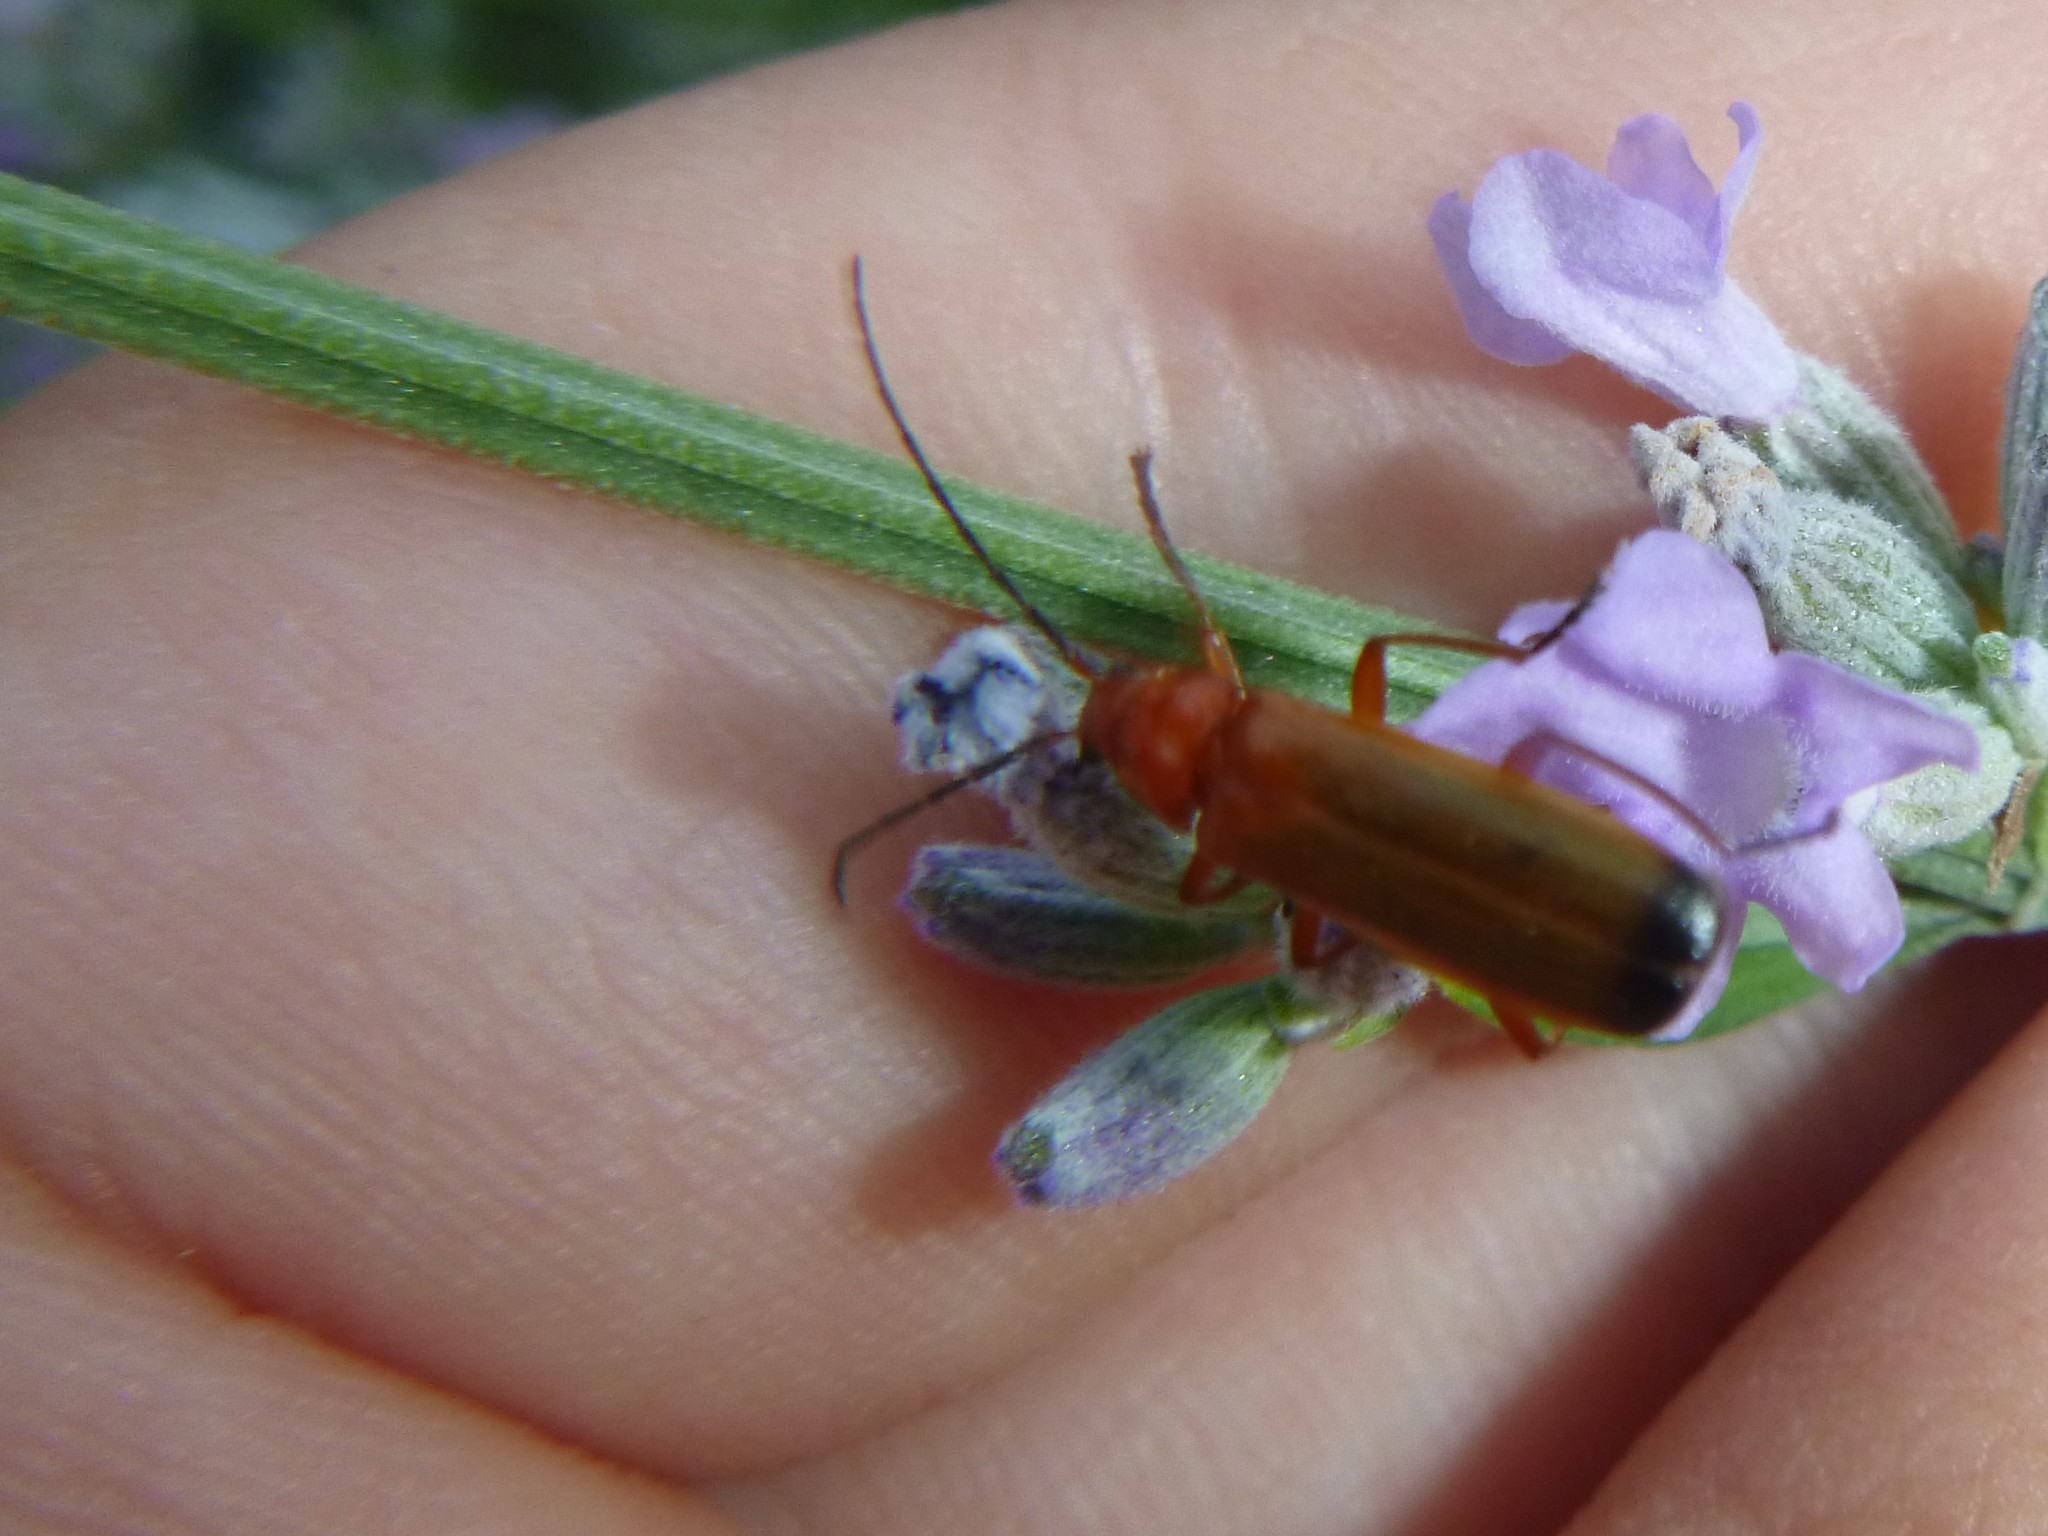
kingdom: Animalia
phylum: Arthropoda
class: Insecta
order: Coleoptera
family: Cantharidae
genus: Rhagonycha
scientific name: Rhagonycha fulva
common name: Common red soldier beetle
